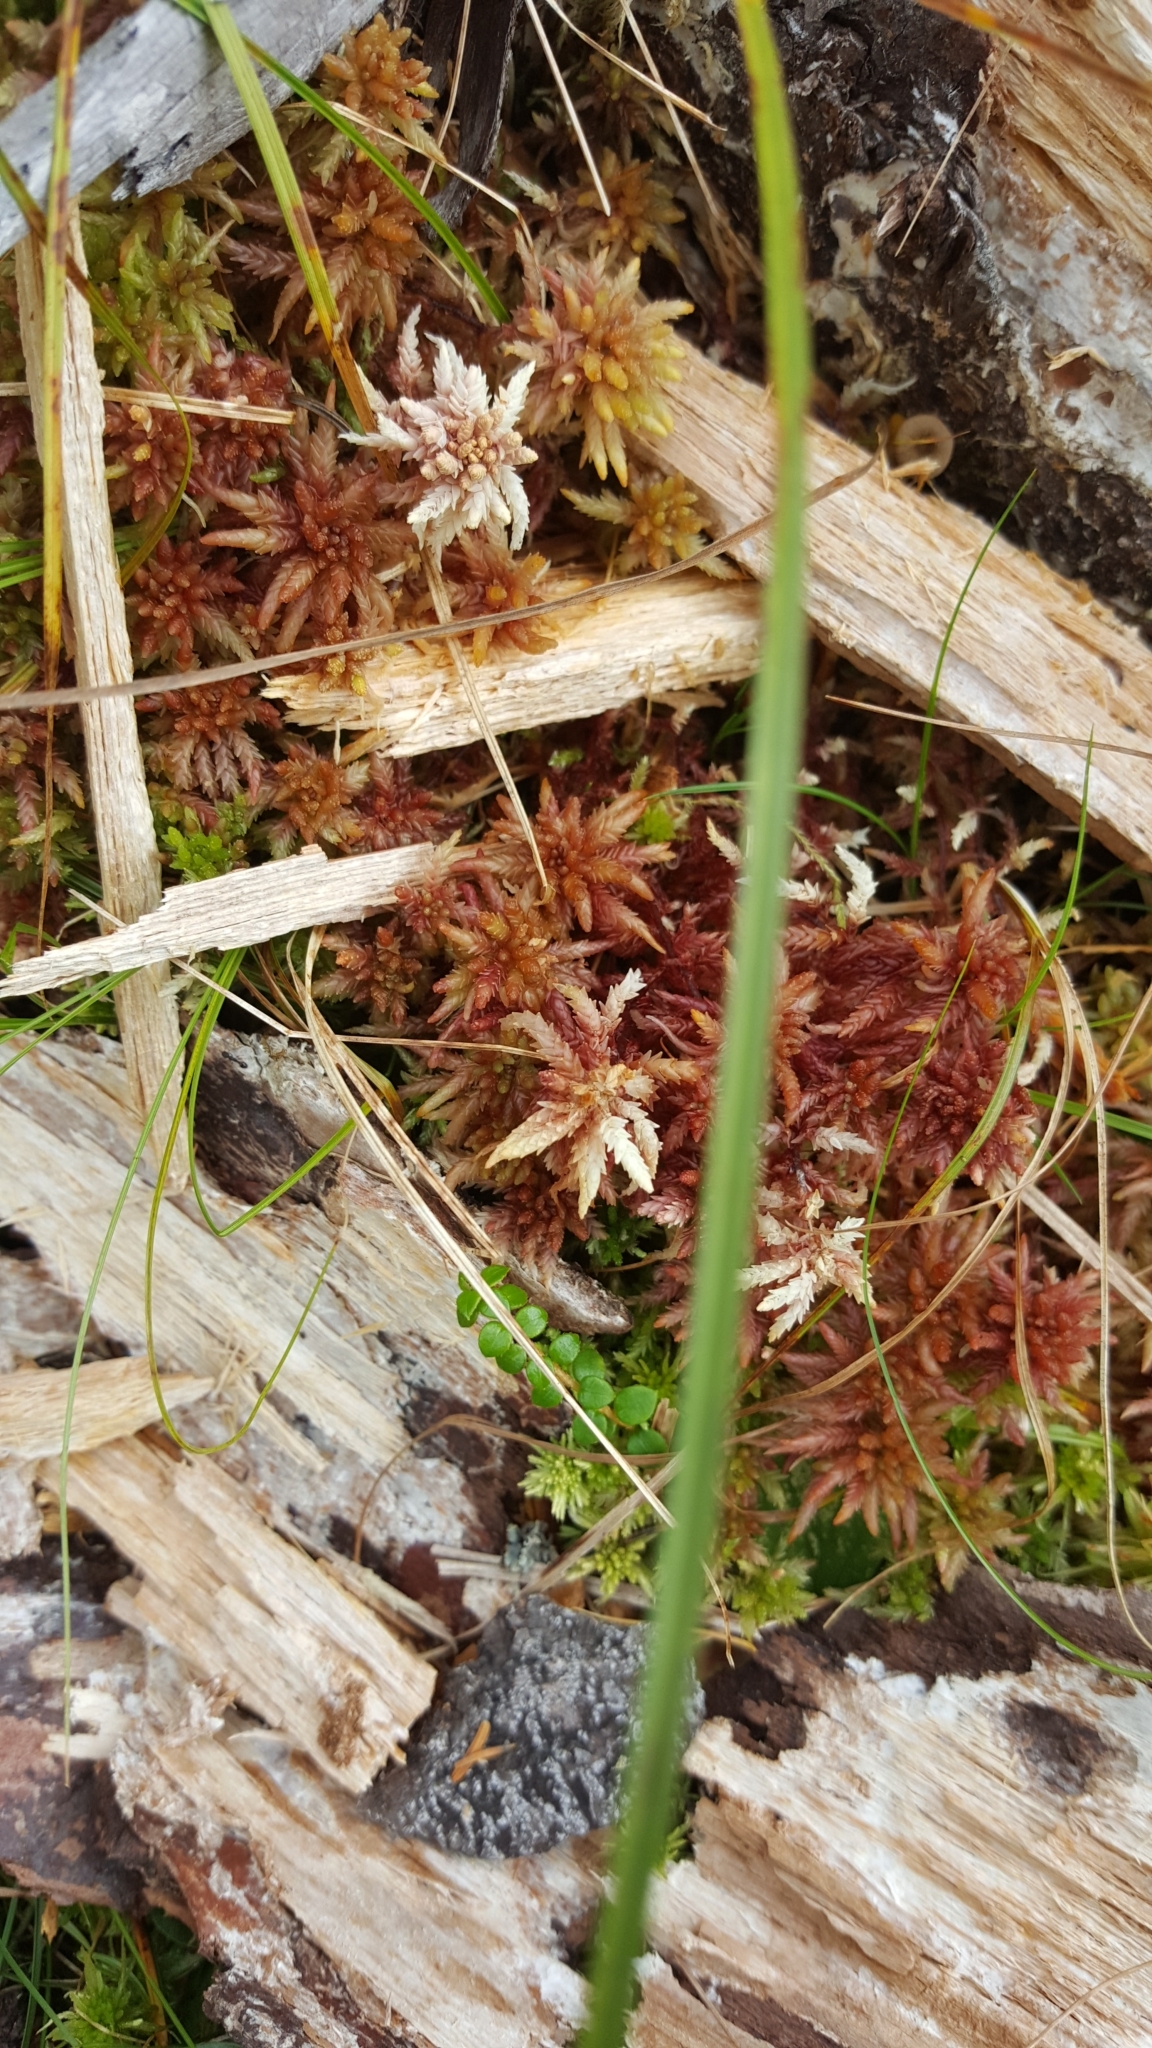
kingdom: Plantae
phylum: Bryophyta
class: Sphagnopsida
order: Sphagnales
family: Sphagnaceae
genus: Sphagnum
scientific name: Sphagnum magellanicum
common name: Magellan's peat moss
